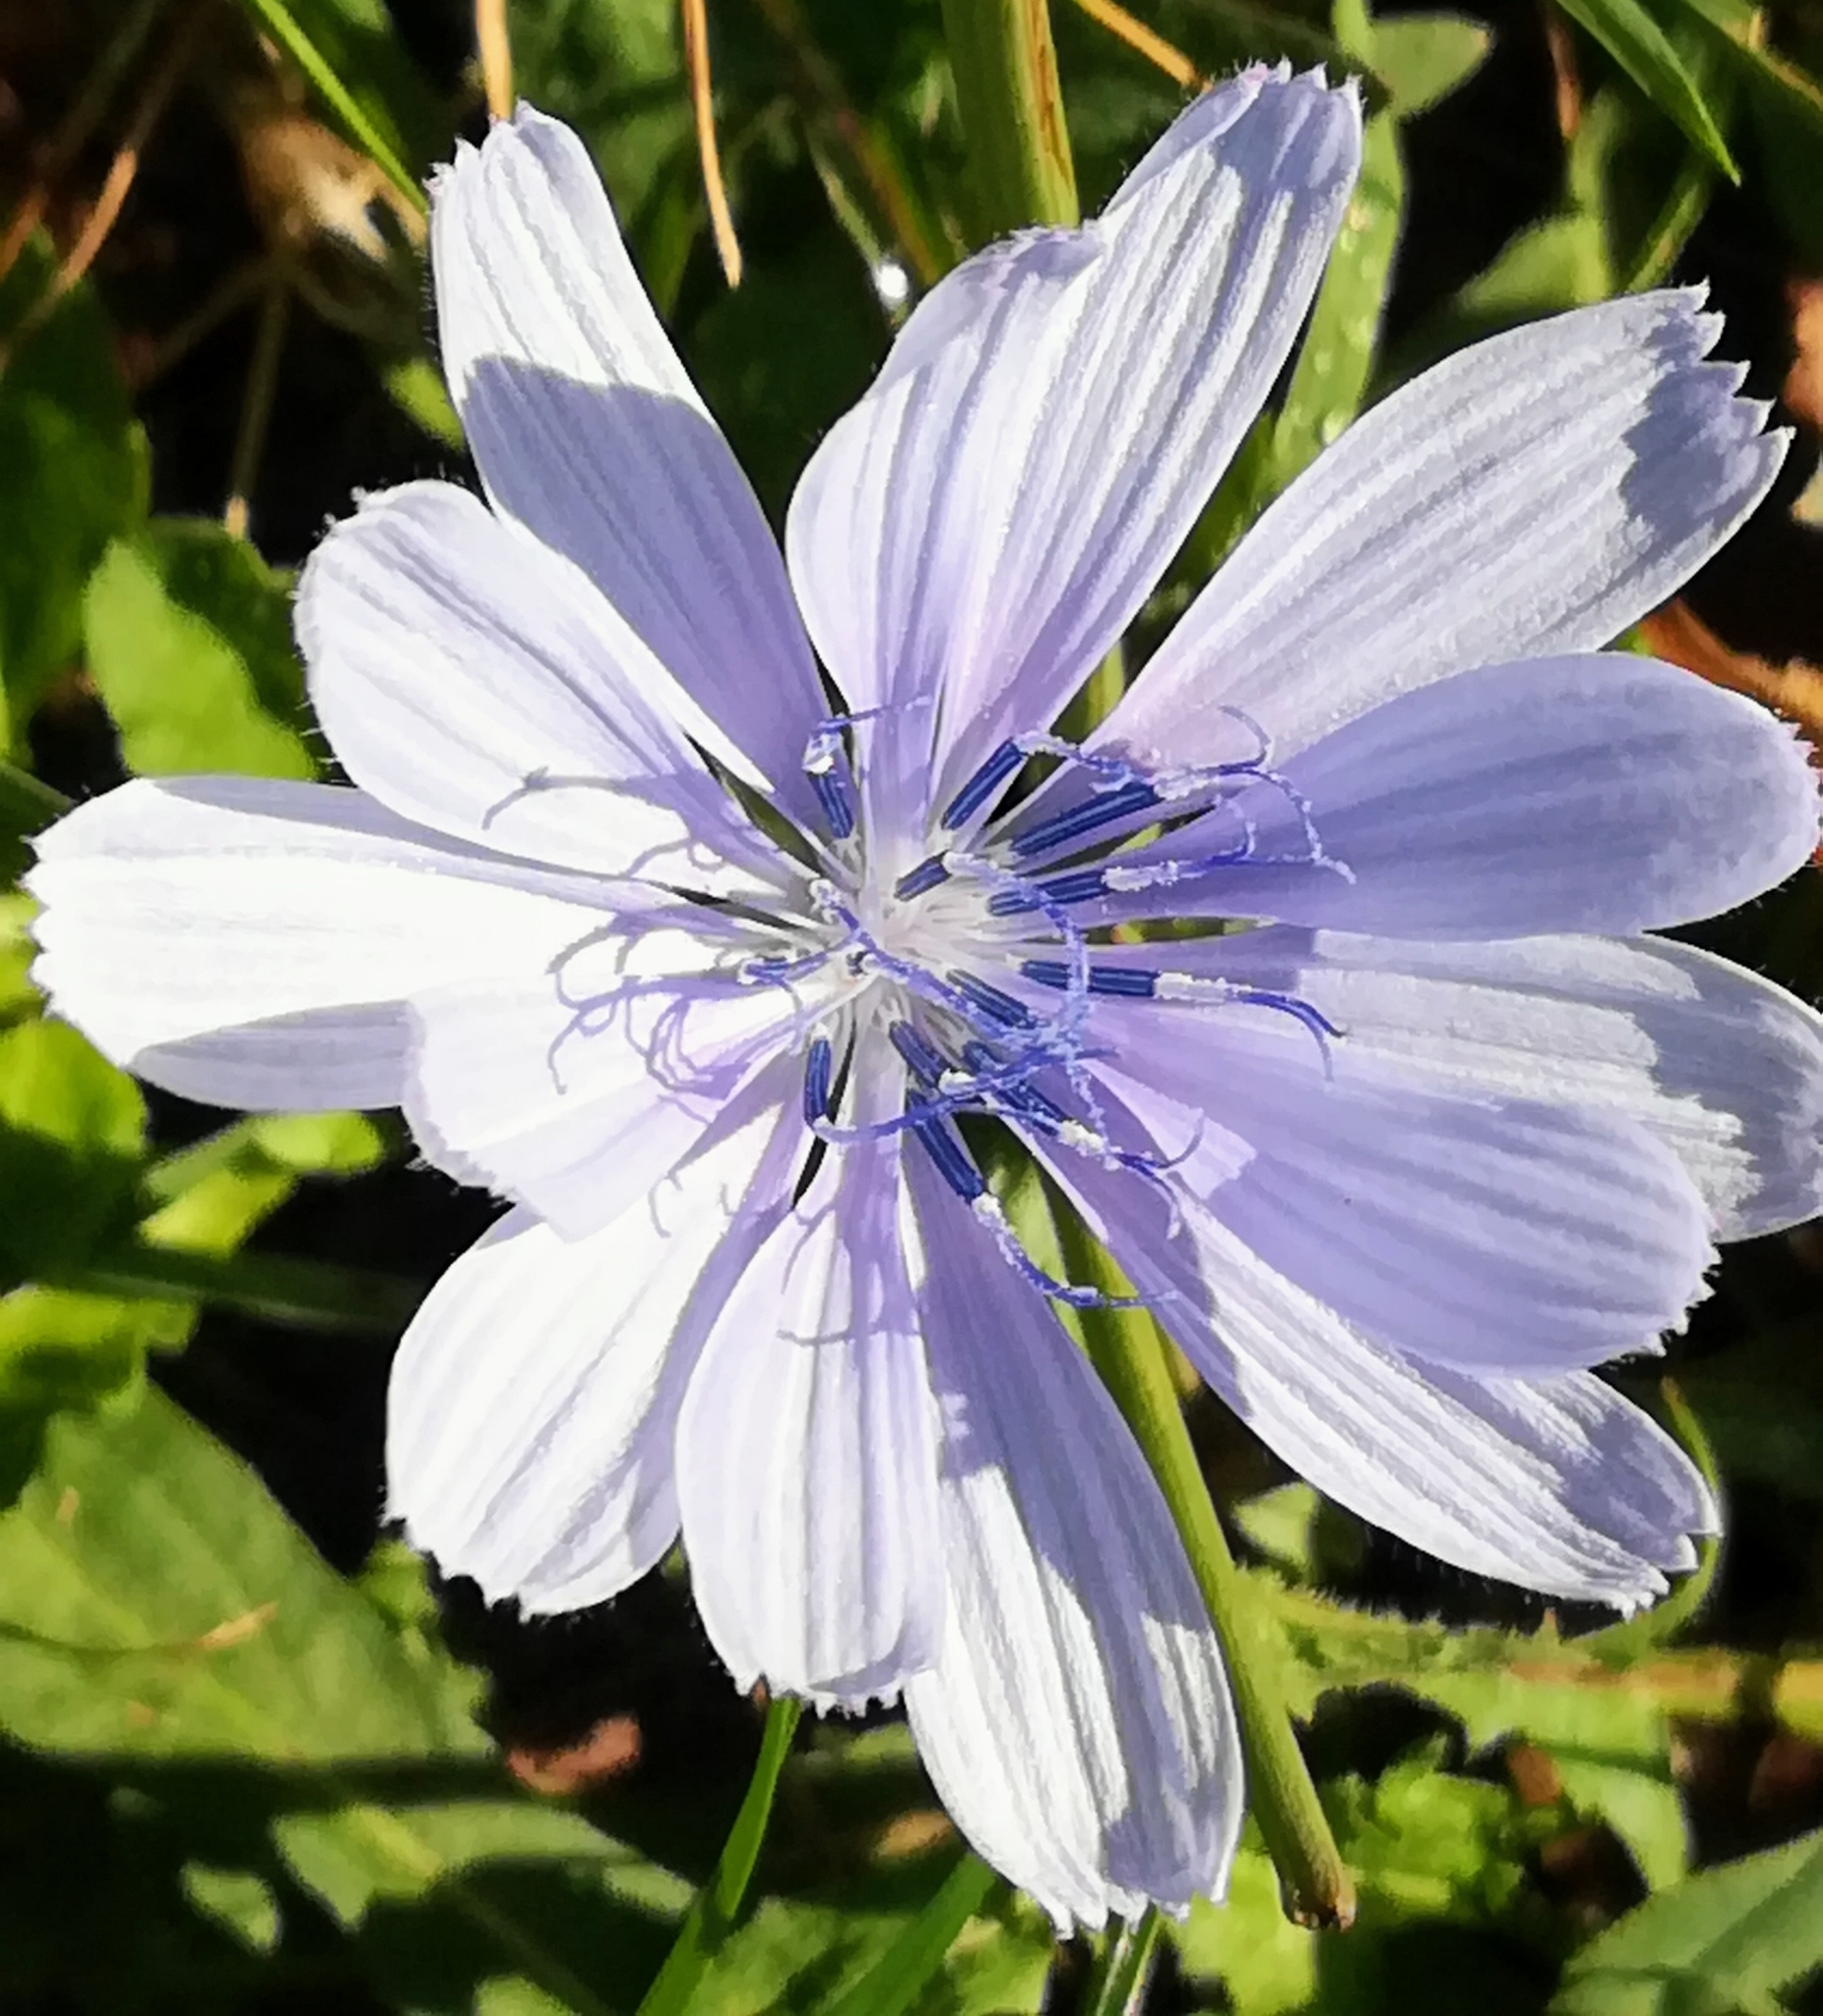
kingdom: Plantae
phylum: Tracheophyta
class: Magnoliopsida
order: Asterales
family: Asteraceae
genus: Cichorium
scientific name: Cichorium intybus
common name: Chicory
